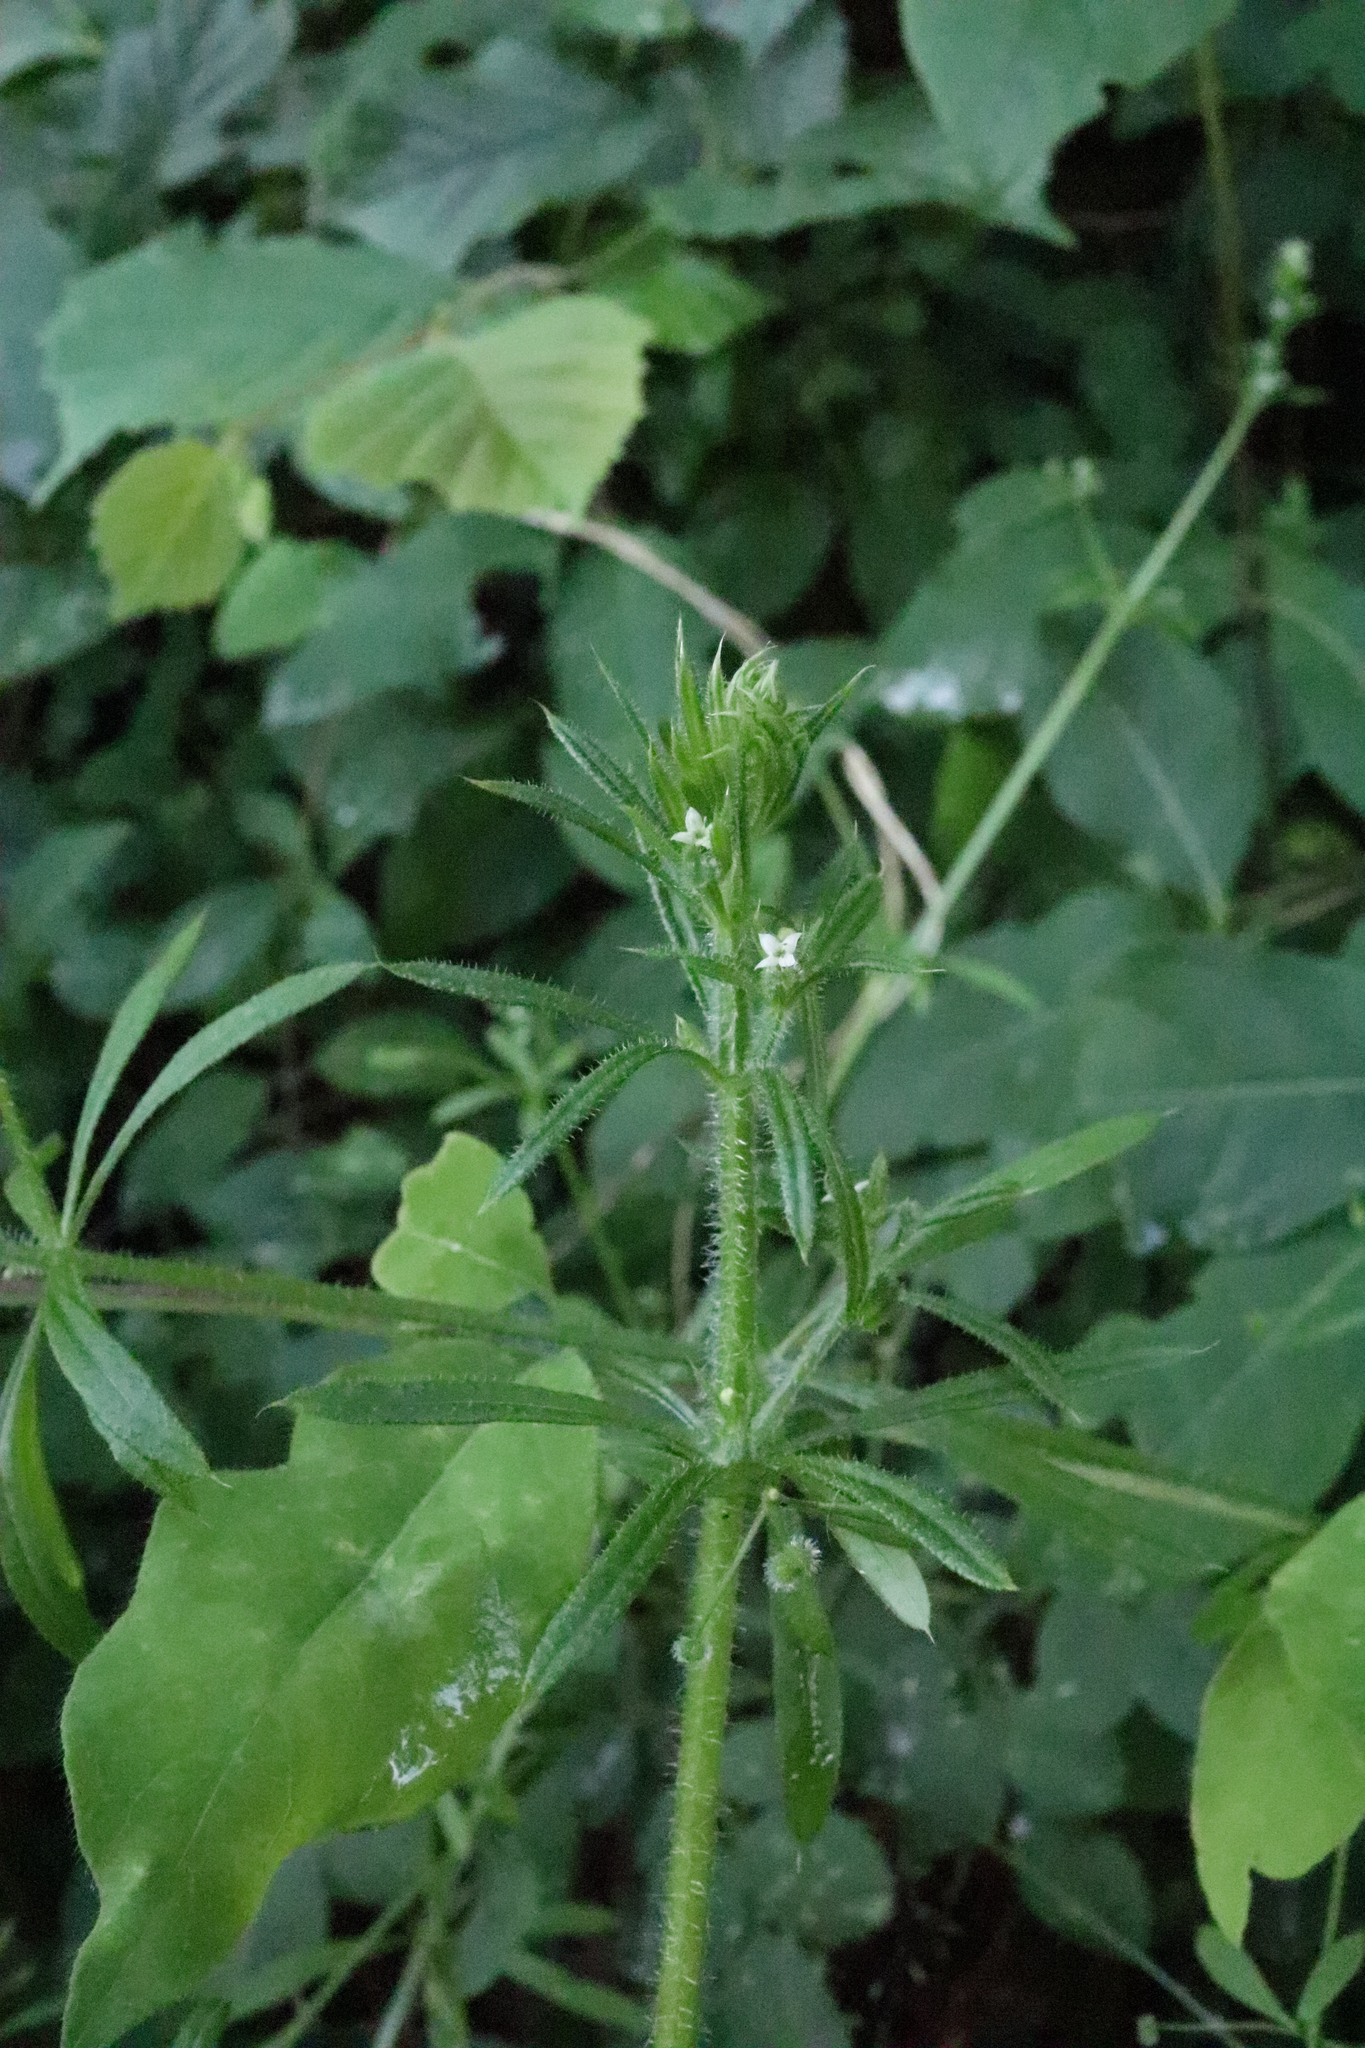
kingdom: Plantae
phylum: Tracheophyta
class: Magnoliopsida
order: Gentianales
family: Rubiaceae
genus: Galium
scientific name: Galium aparine
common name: Cleavers
